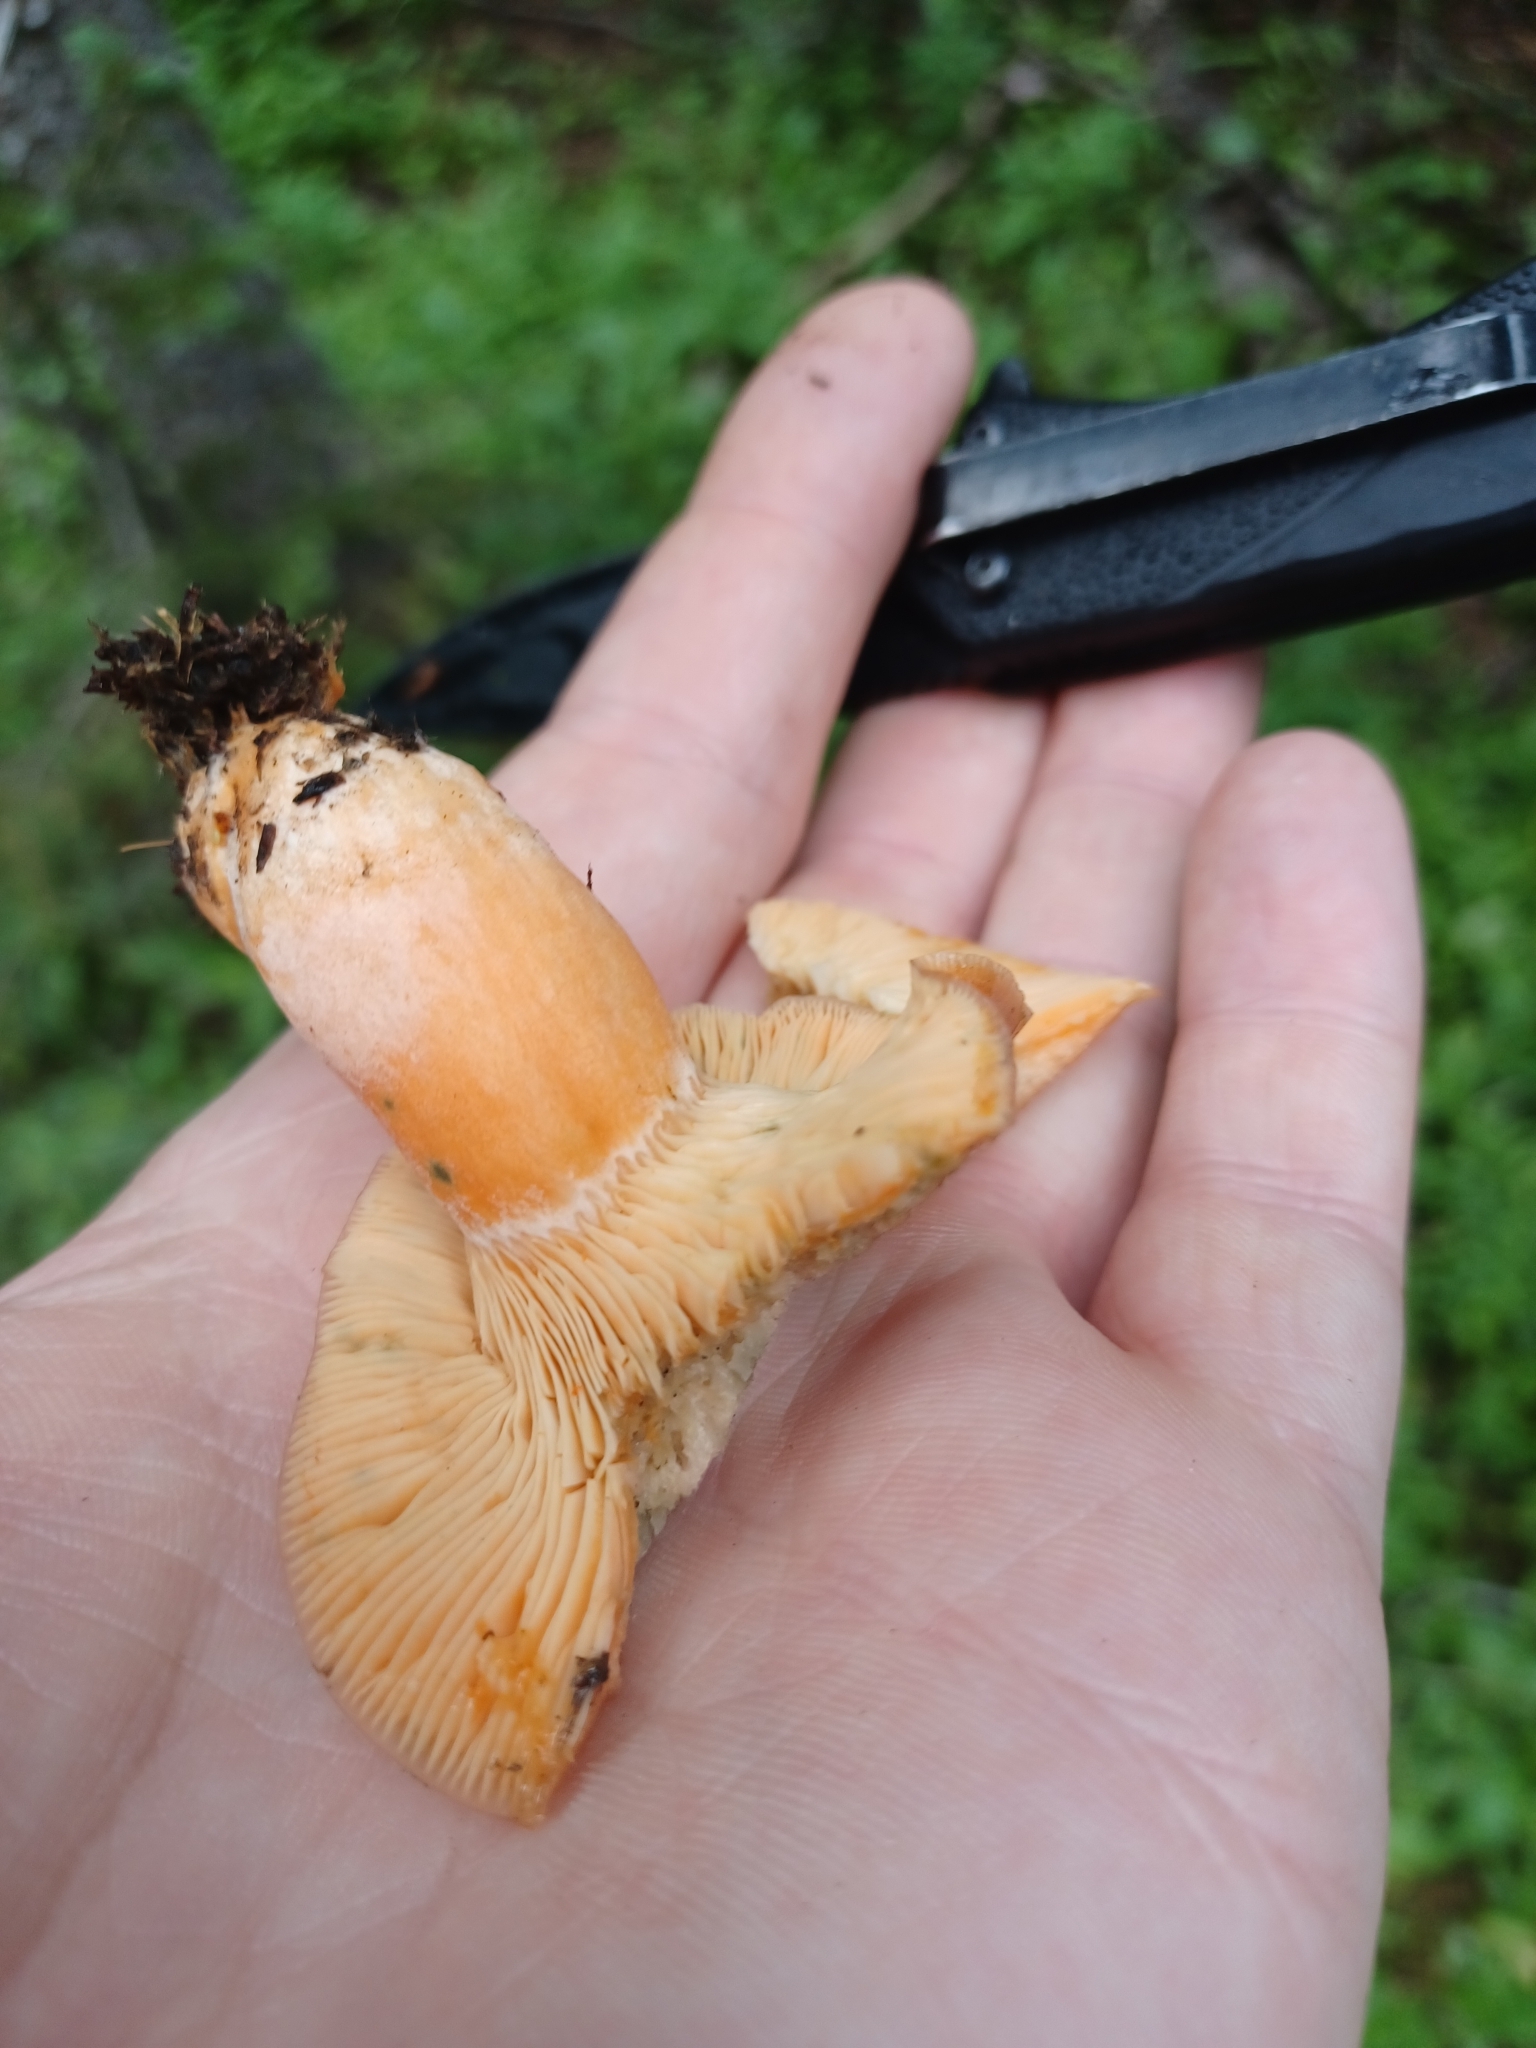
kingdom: Fungi
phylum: Basidiomycota
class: Agaricomycetes
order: Russulales
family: Russulaceae
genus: Lactarius
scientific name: Lactarius deliciosus
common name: Saffron milk-cap
